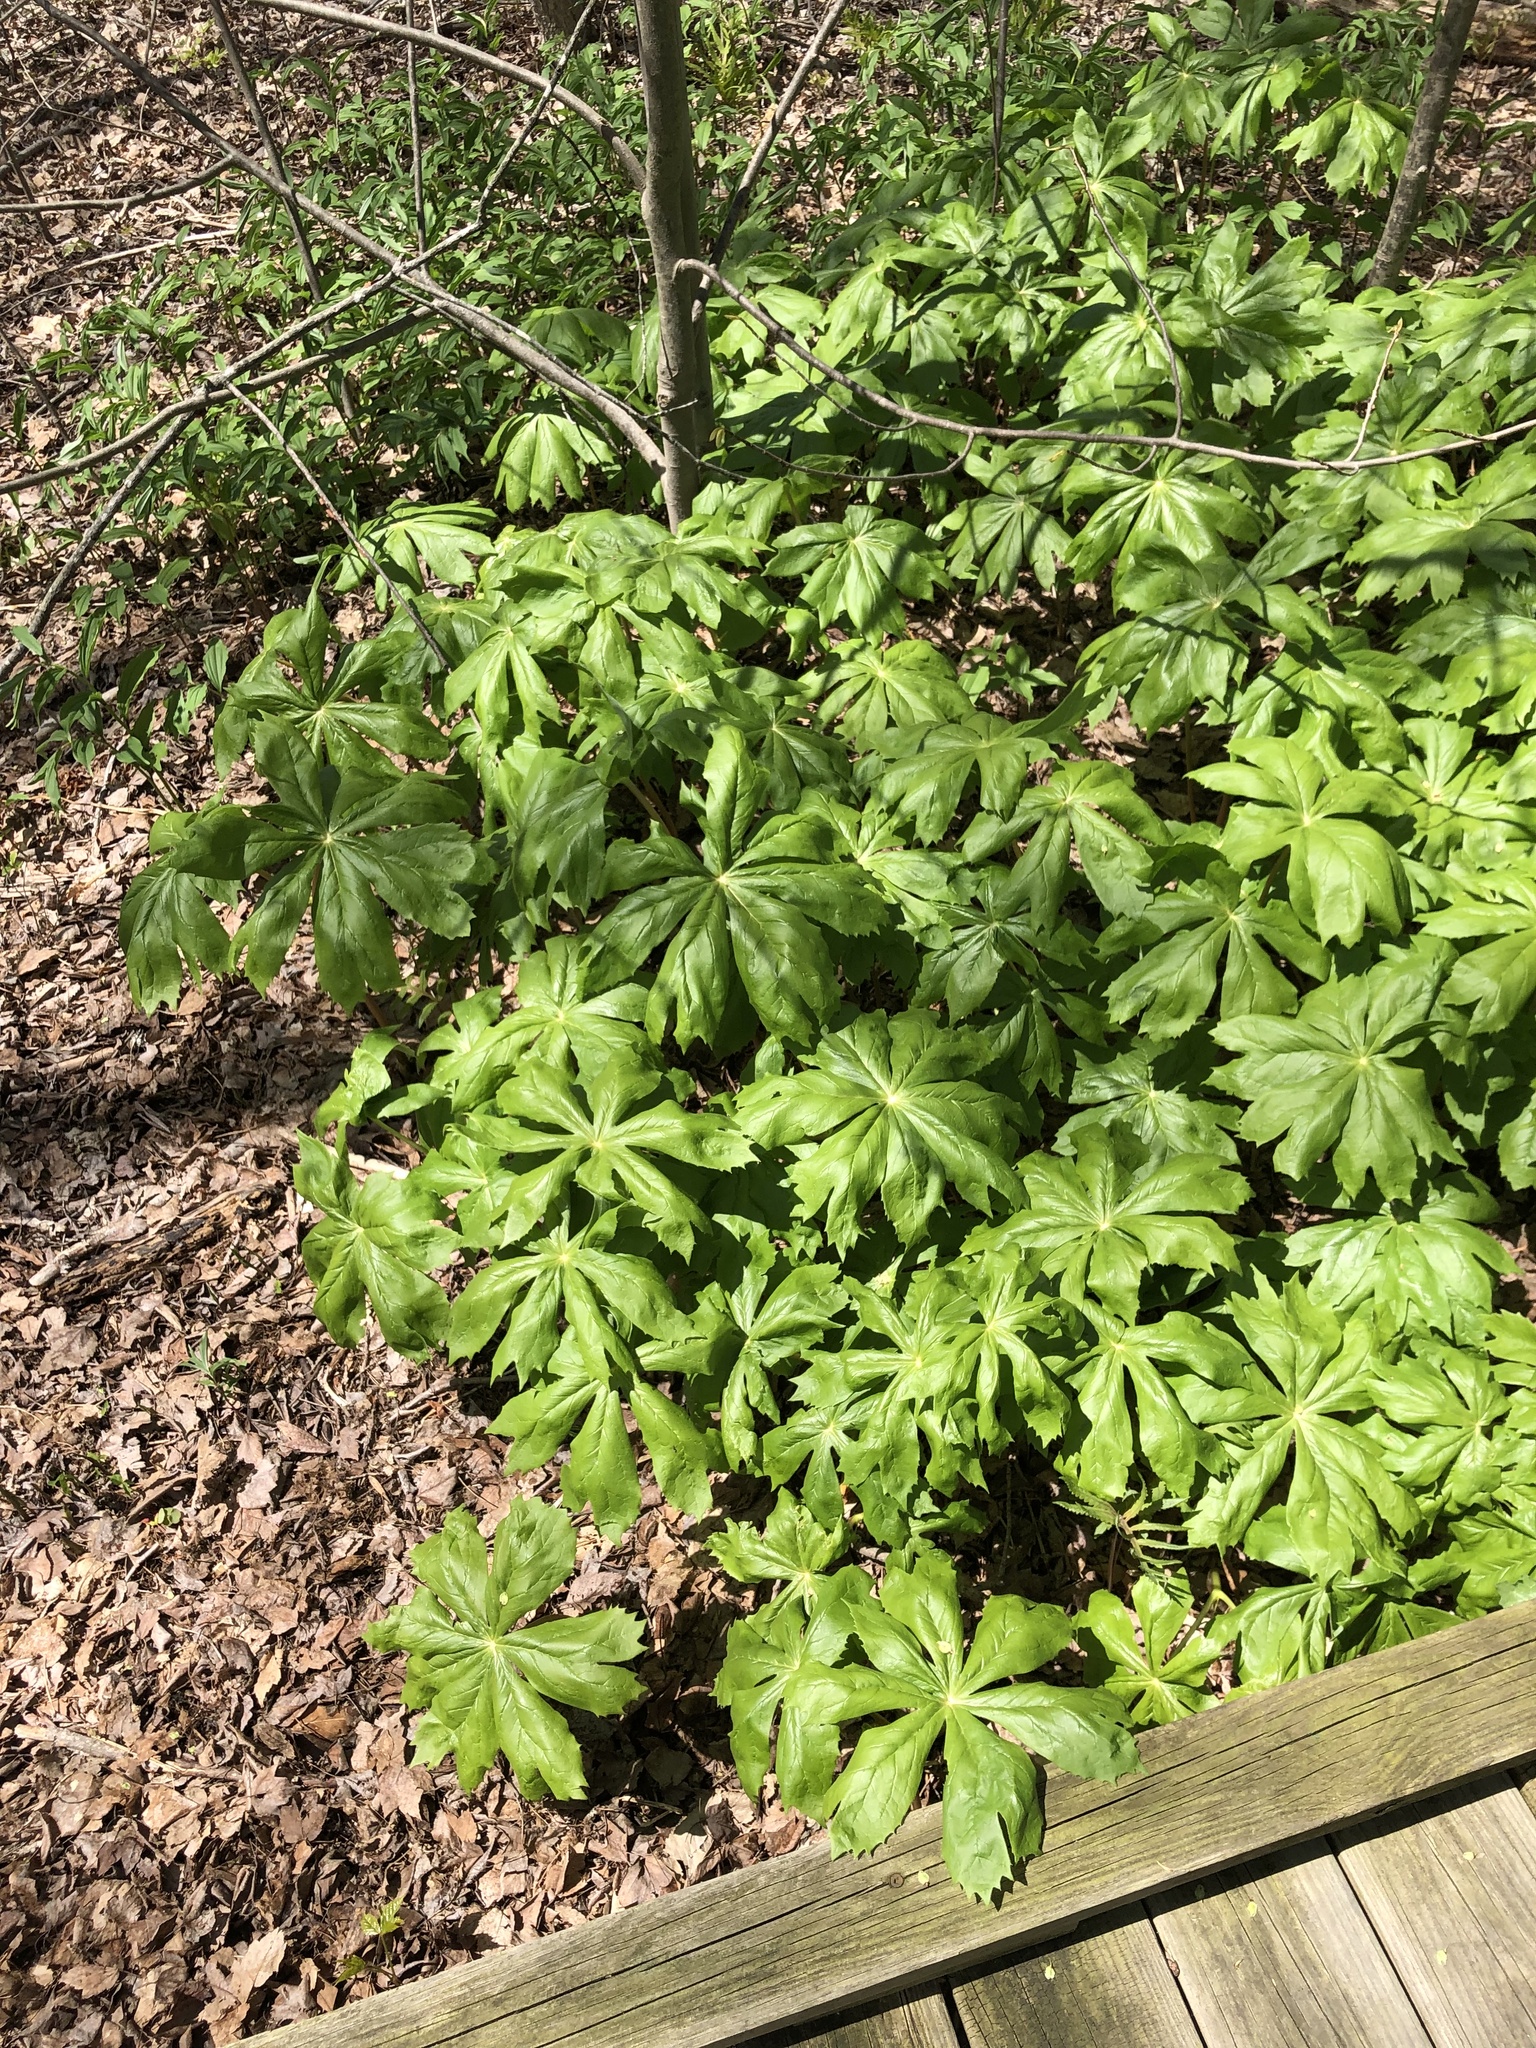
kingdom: Plantae
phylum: Tracheophyta
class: Magnoliopsida
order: Ranunculales
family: Berberidaceae
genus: Podophyllum
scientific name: Podophyllum peltatum
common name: Wild mandrake
